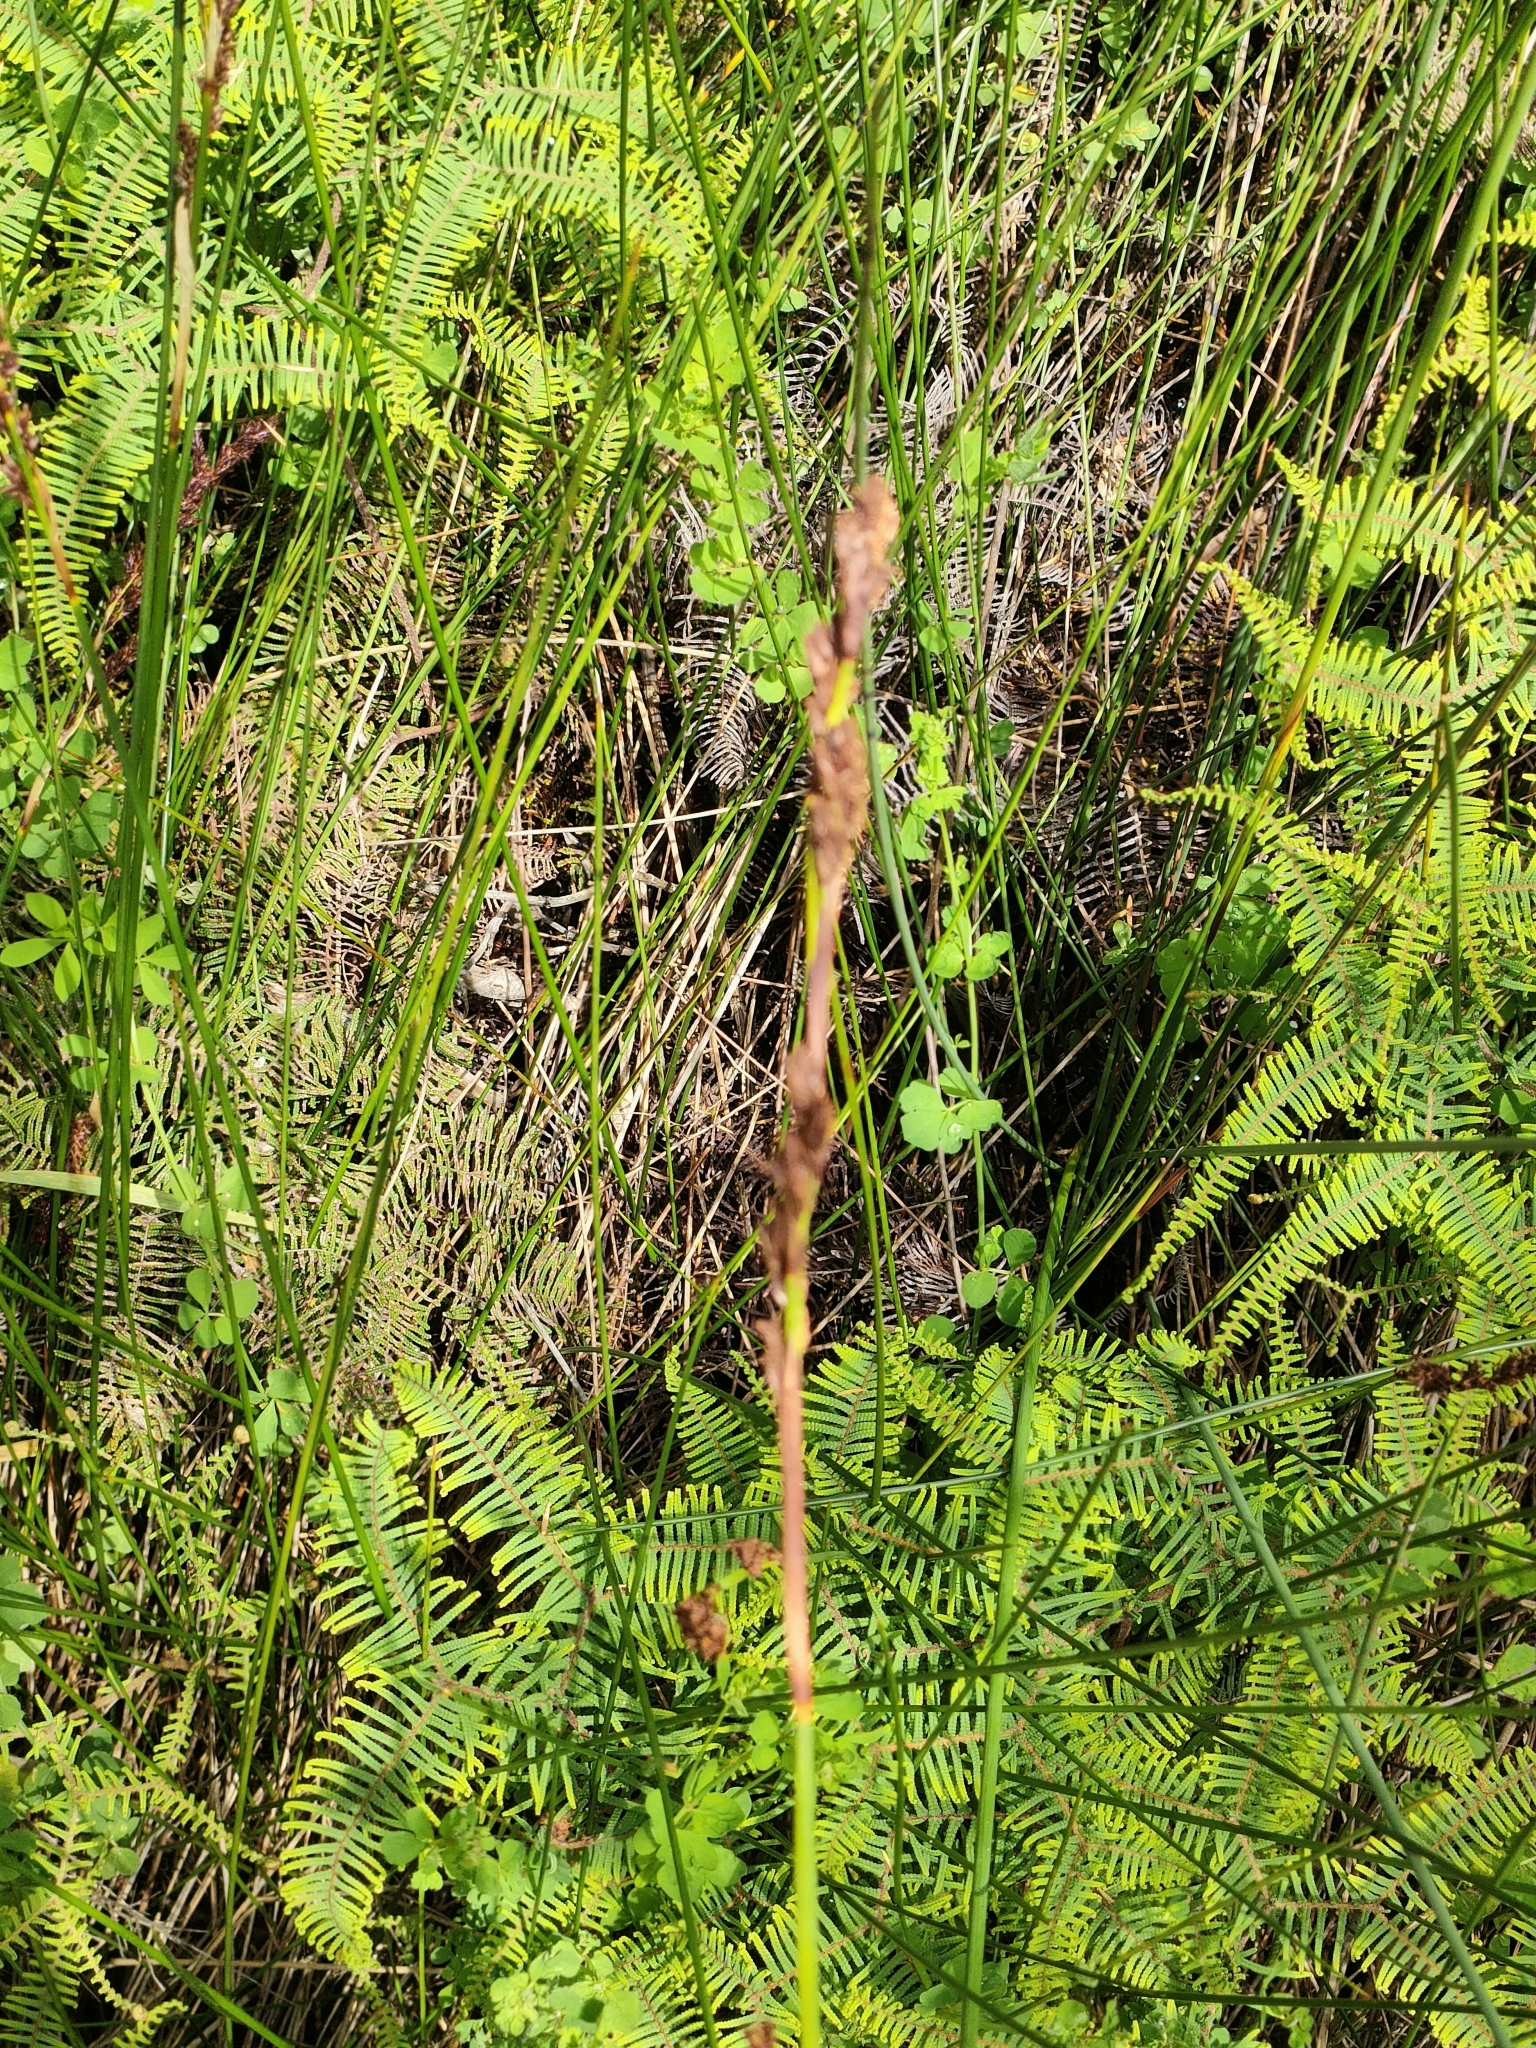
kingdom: Plantae
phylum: Tracheophyta
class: Liliopsida
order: Poales
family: Cyperaceae
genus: Machaerina
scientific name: Machaerina rubiginosa
